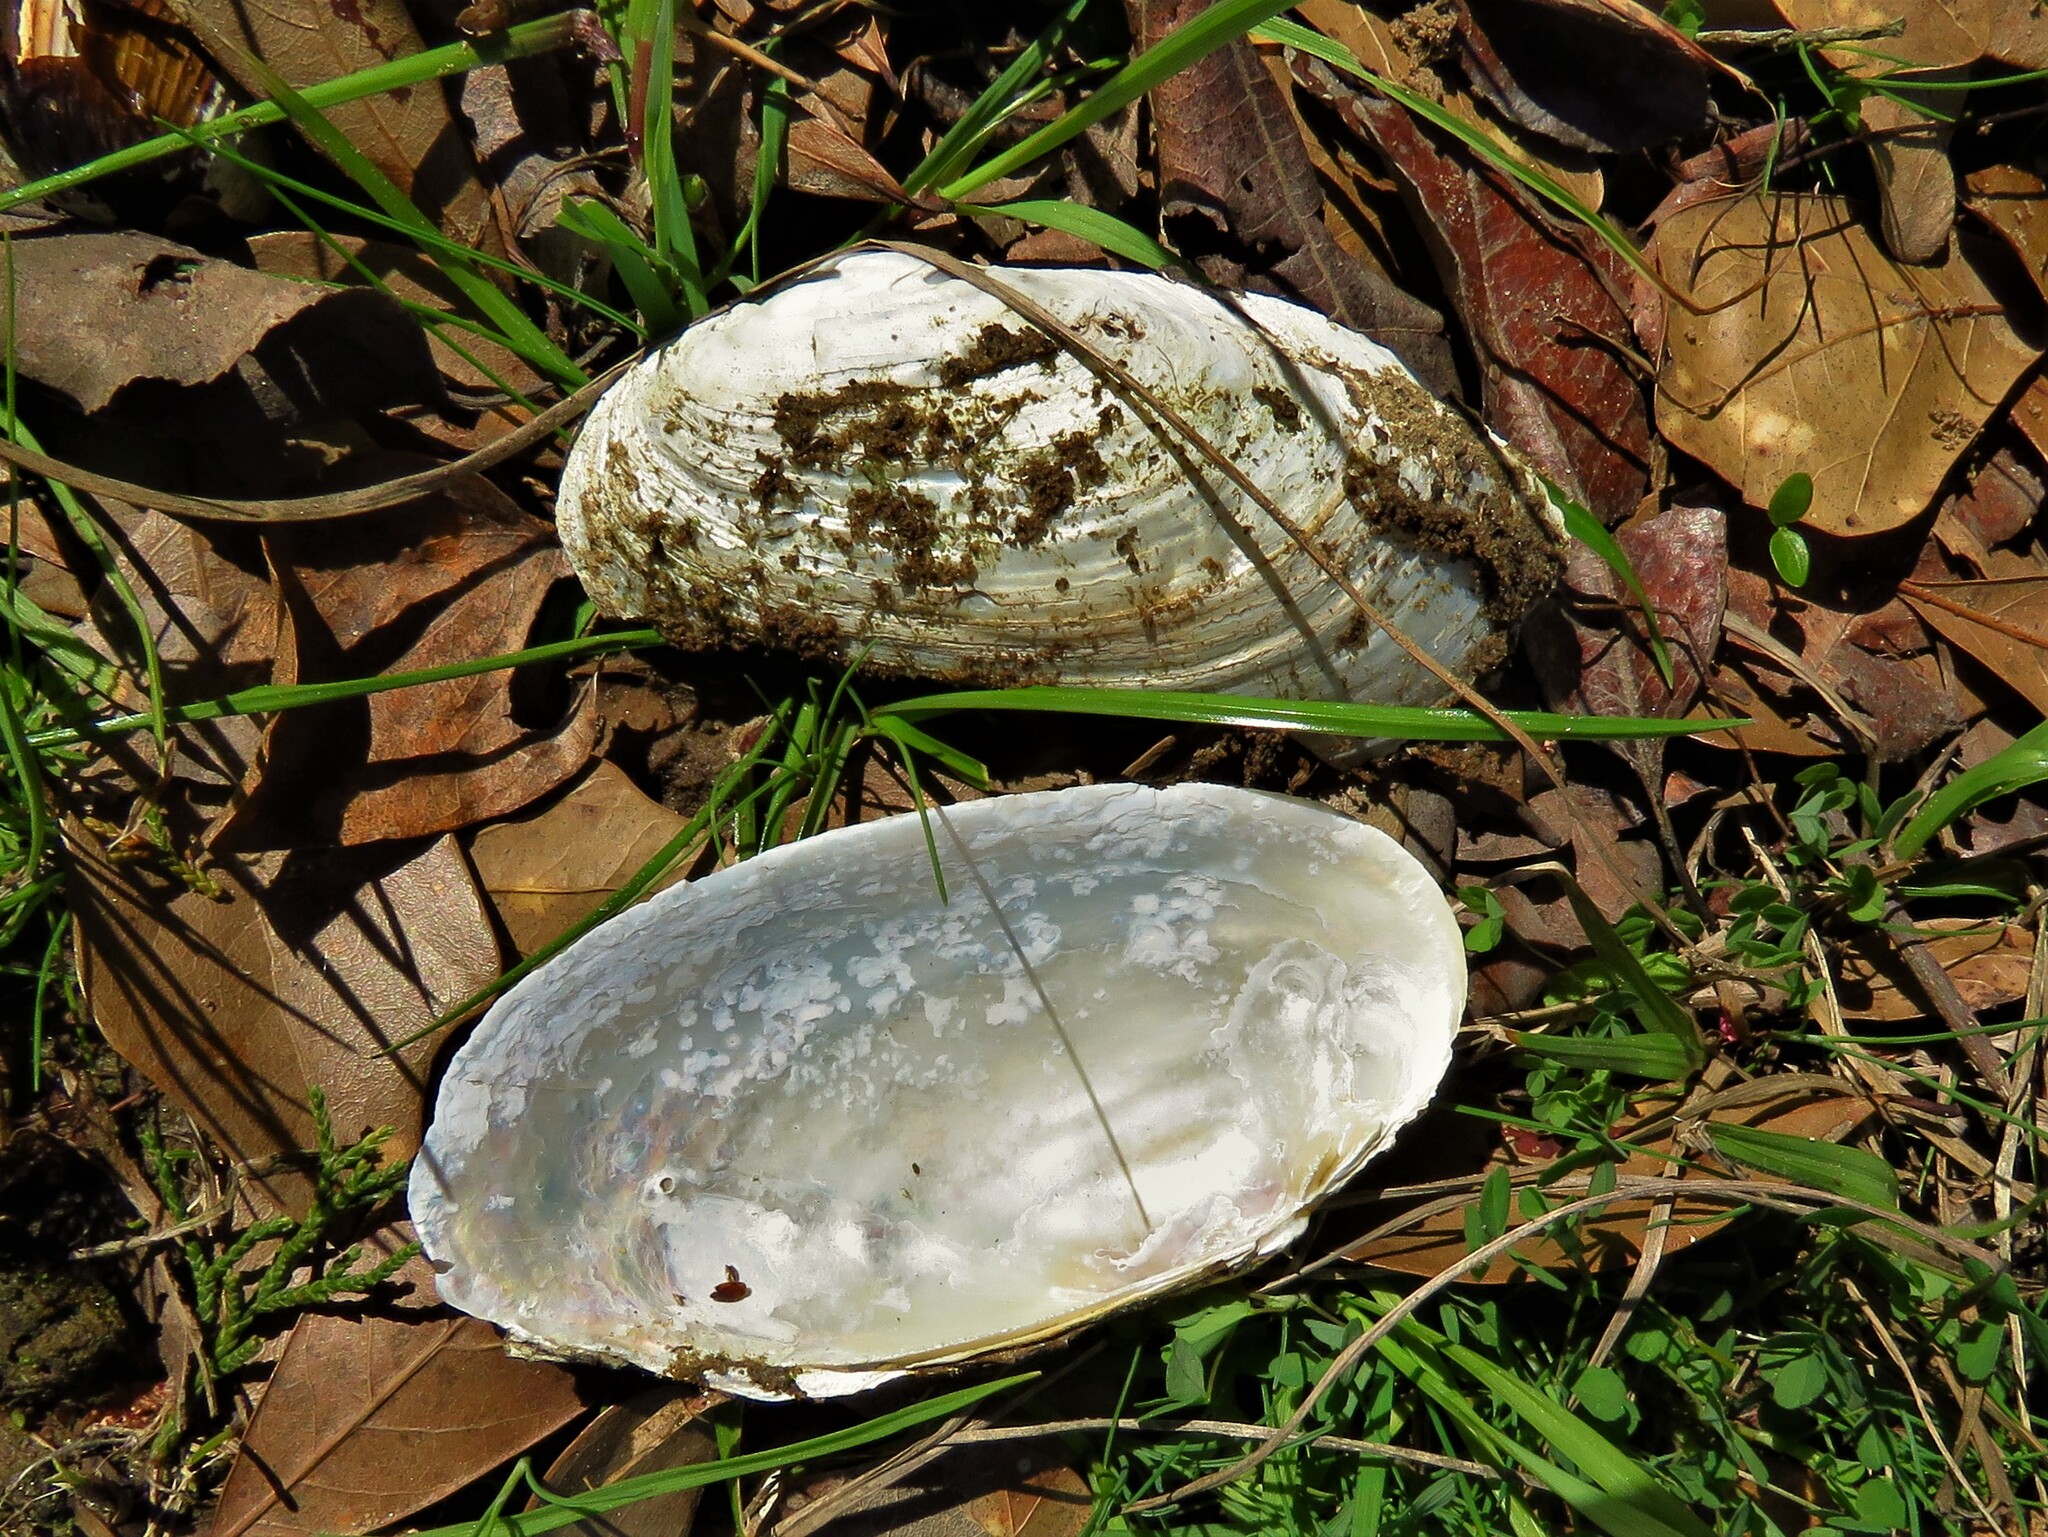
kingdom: Animalia
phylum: Mollusca
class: Bivalvia
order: Unionida
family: Unionidae
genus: Potamilus
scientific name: Potamilus fragilis
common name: Fragile papershell
